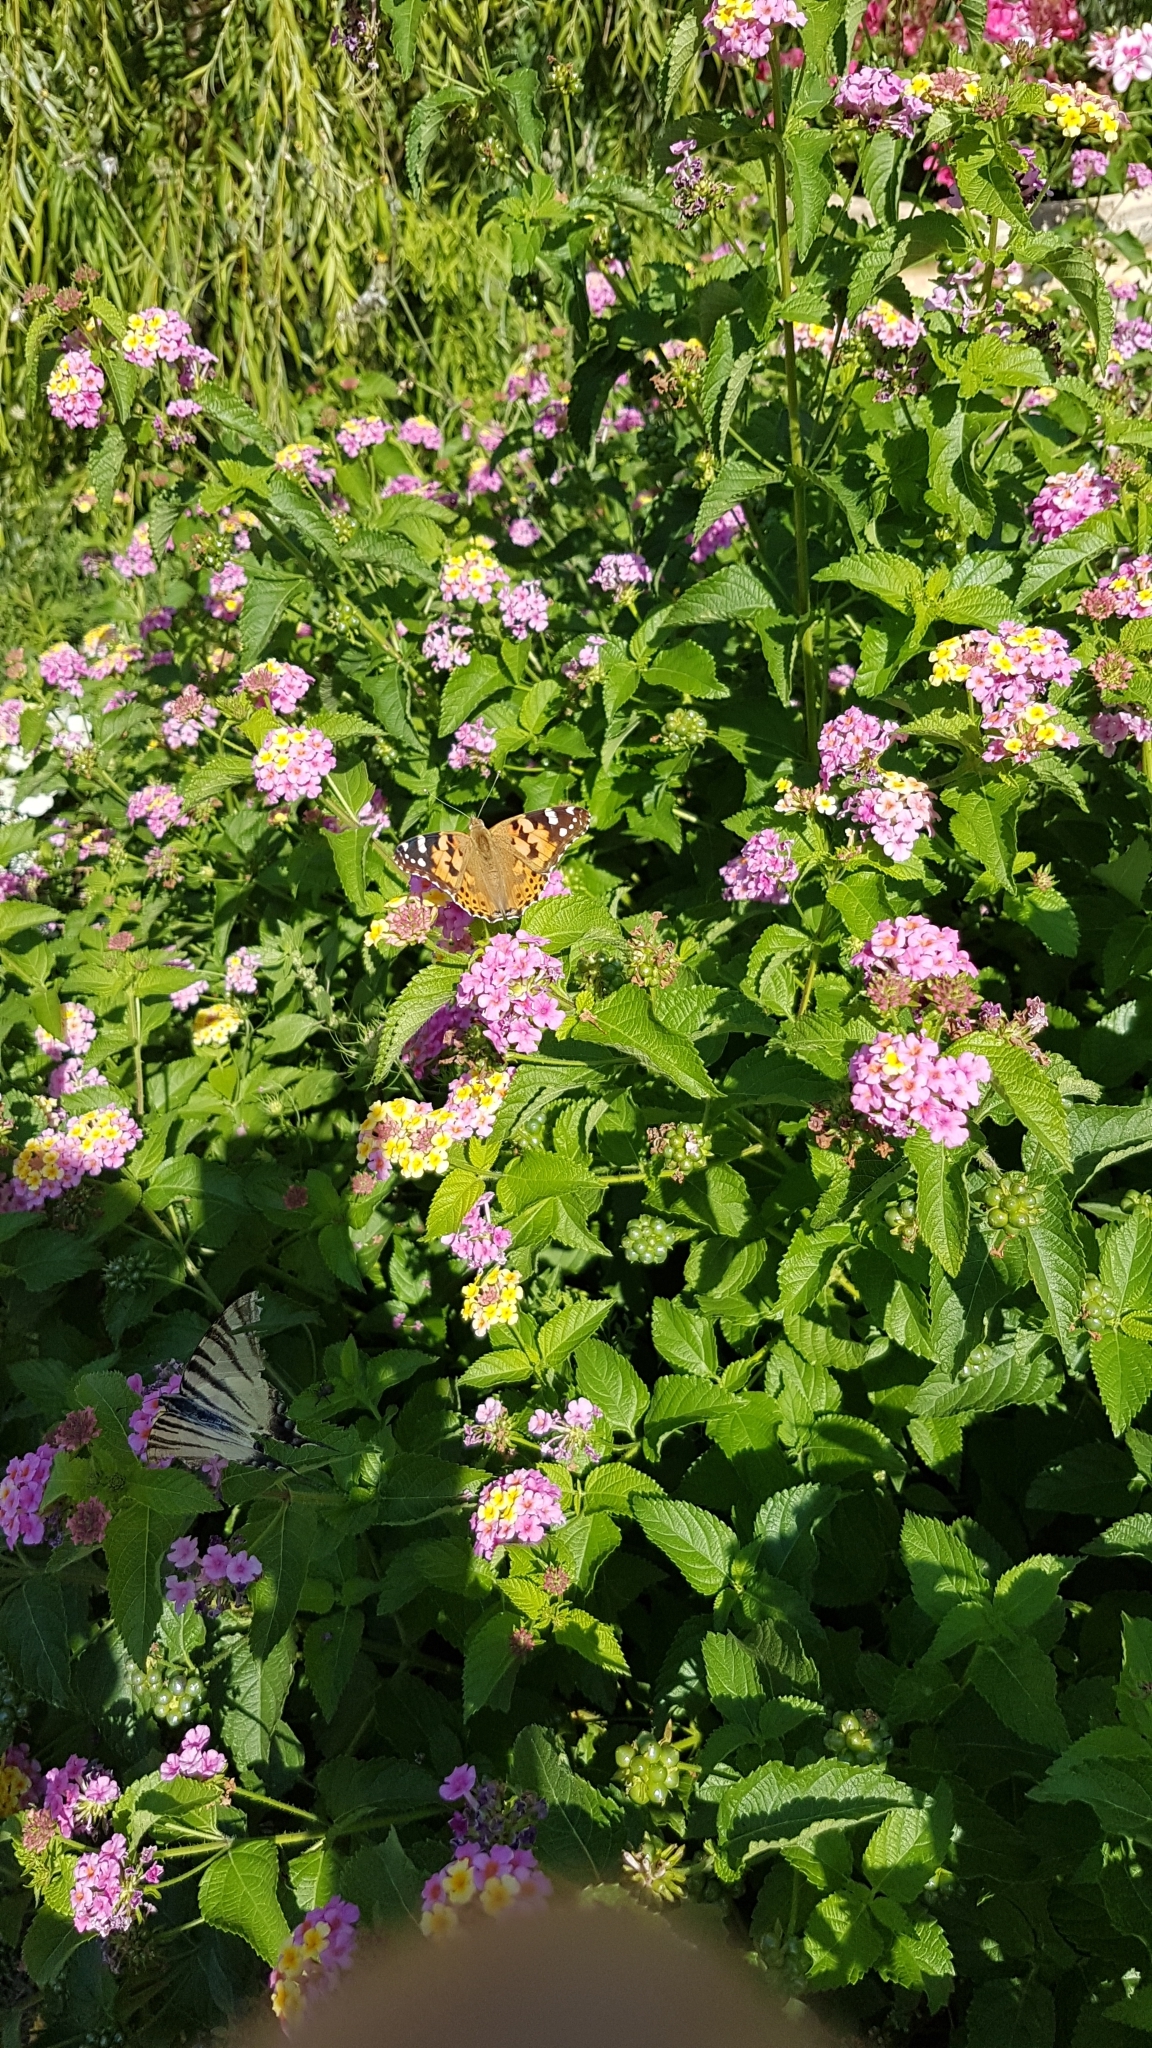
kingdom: Animalia
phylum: Arthropoda
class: Insecta
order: Lepidoptera
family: Nymphalidae
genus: Vanessa
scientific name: Vanessa cardui
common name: Painted lady
